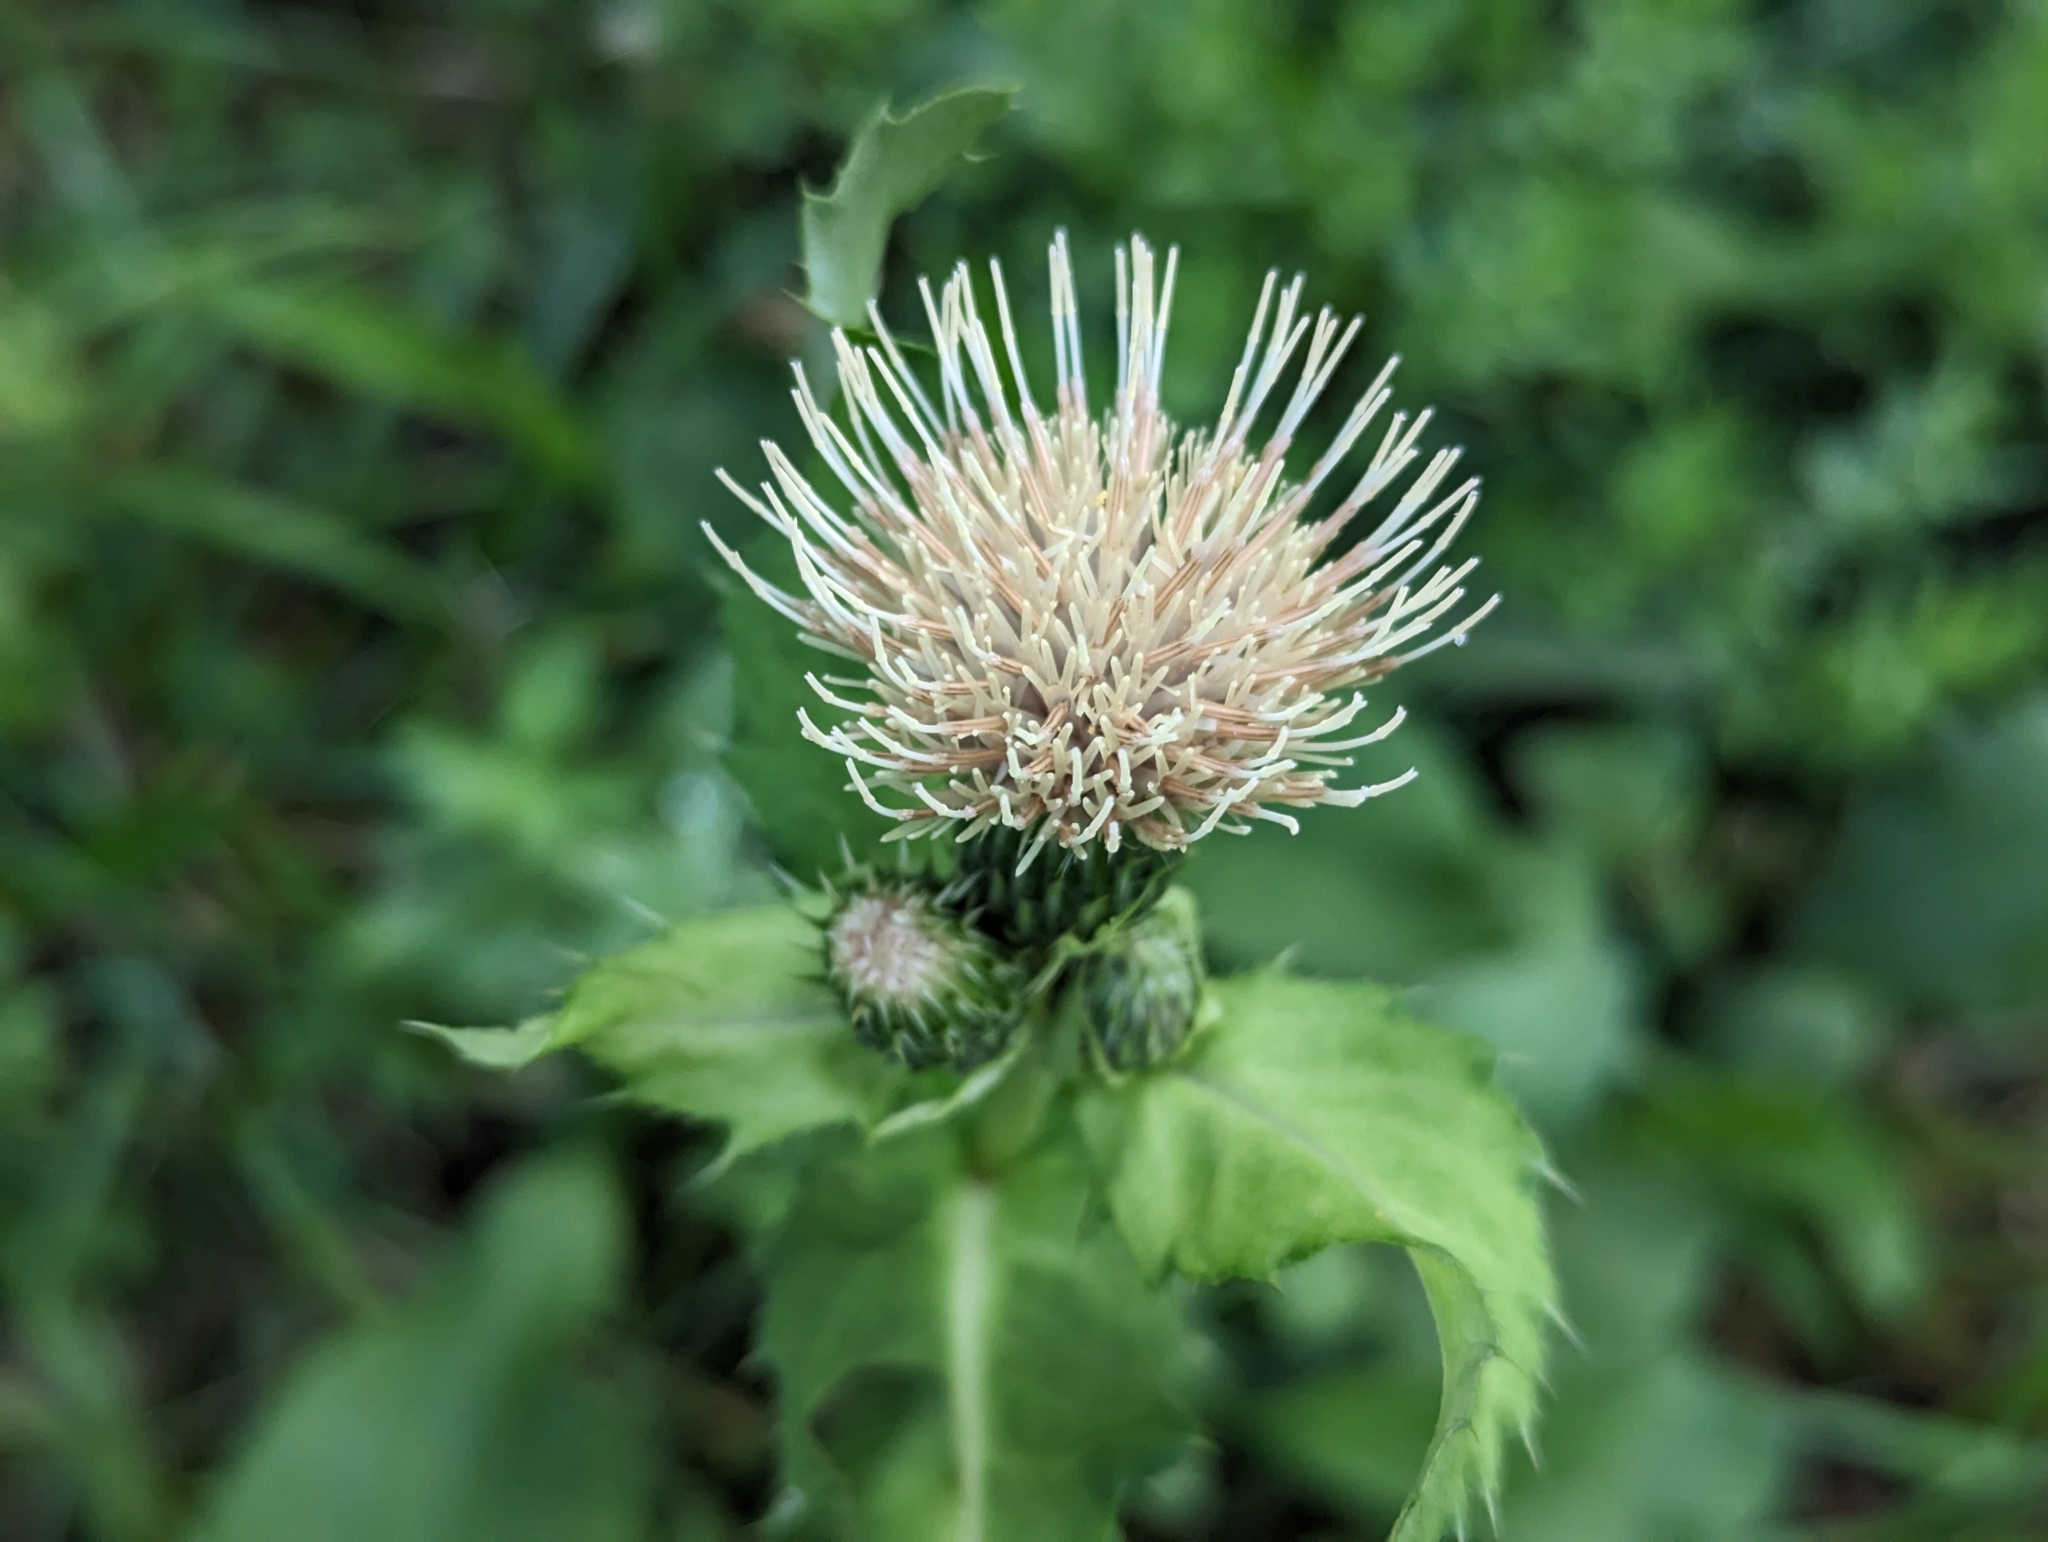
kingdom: Plantae
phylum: Tracheophyta
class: Magnoliopsida
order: Asterales
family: Asteraceae
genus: Cirsium
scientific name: Cirsium oleraceum
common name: Cabbage thistle
